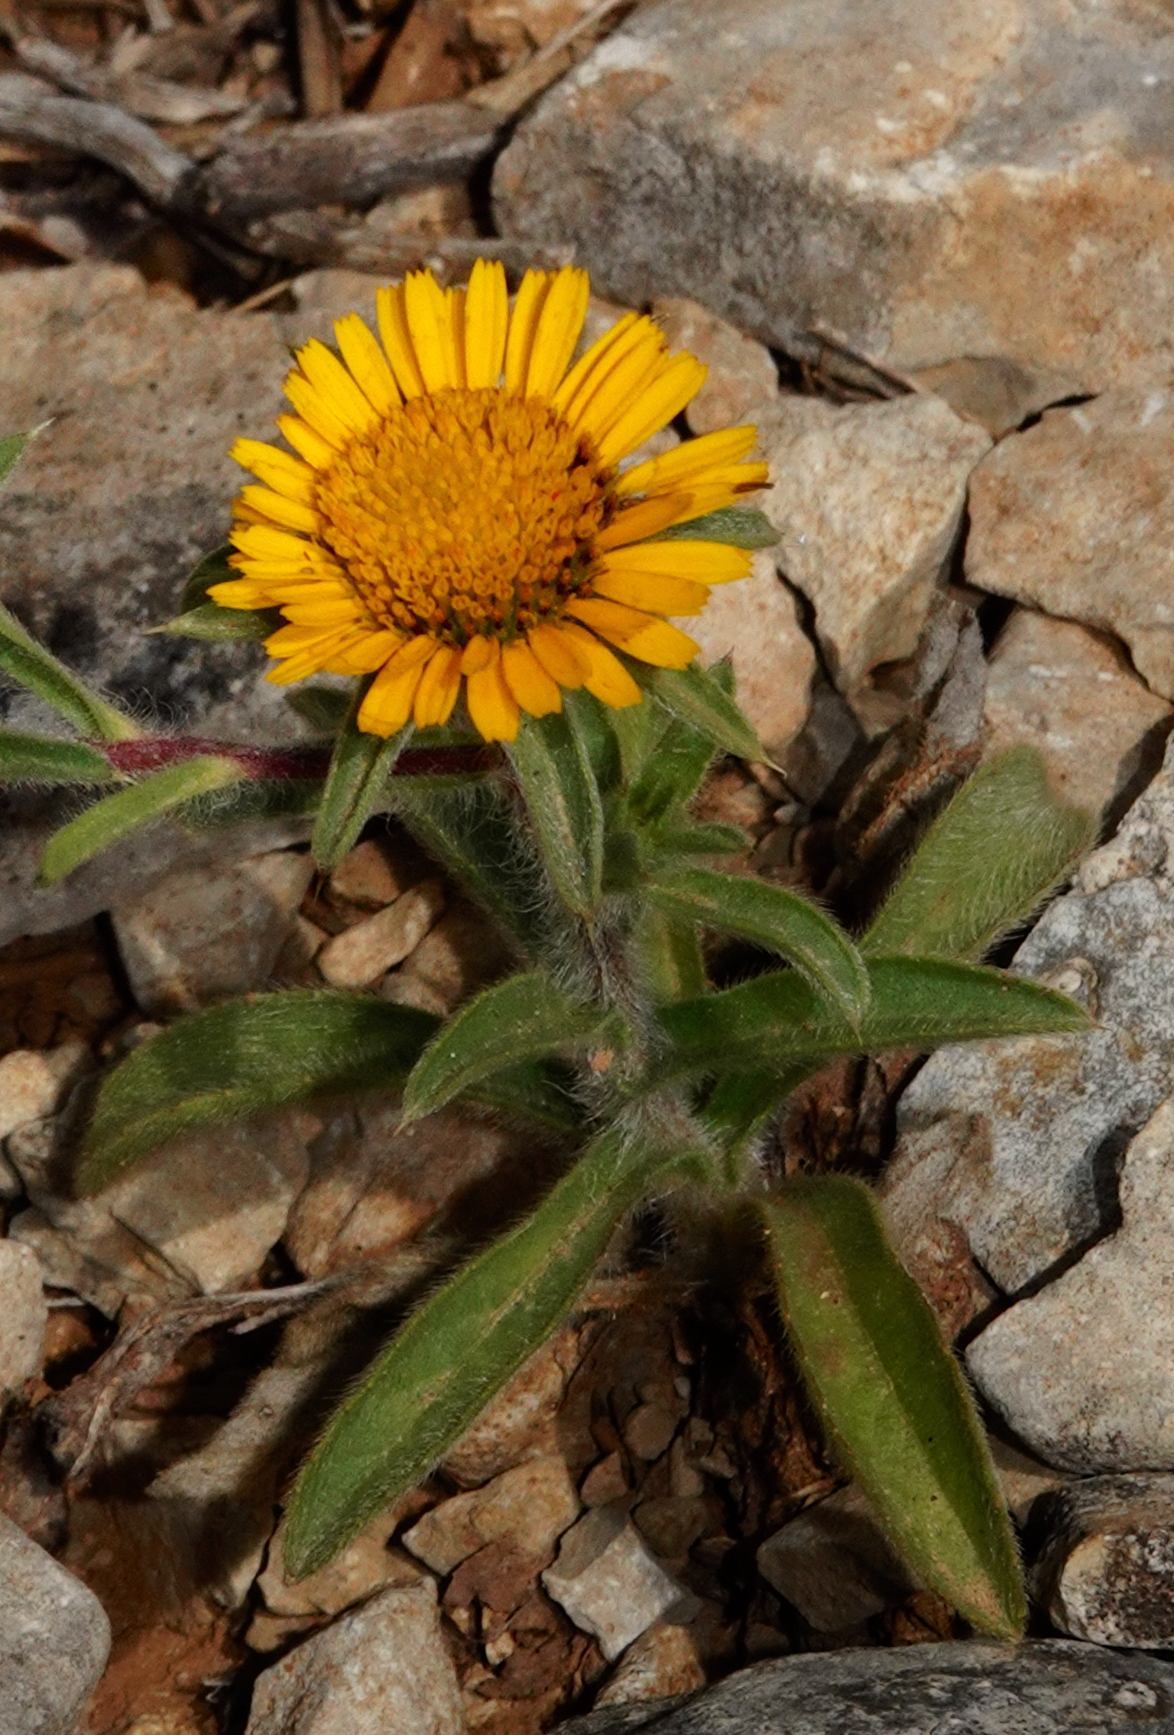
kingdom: Plantae
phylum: Tracheophyta
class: Magnoliopsida
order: Asterales
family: Asteraceae
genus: Pallenis
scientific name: Pallenis spinosa
